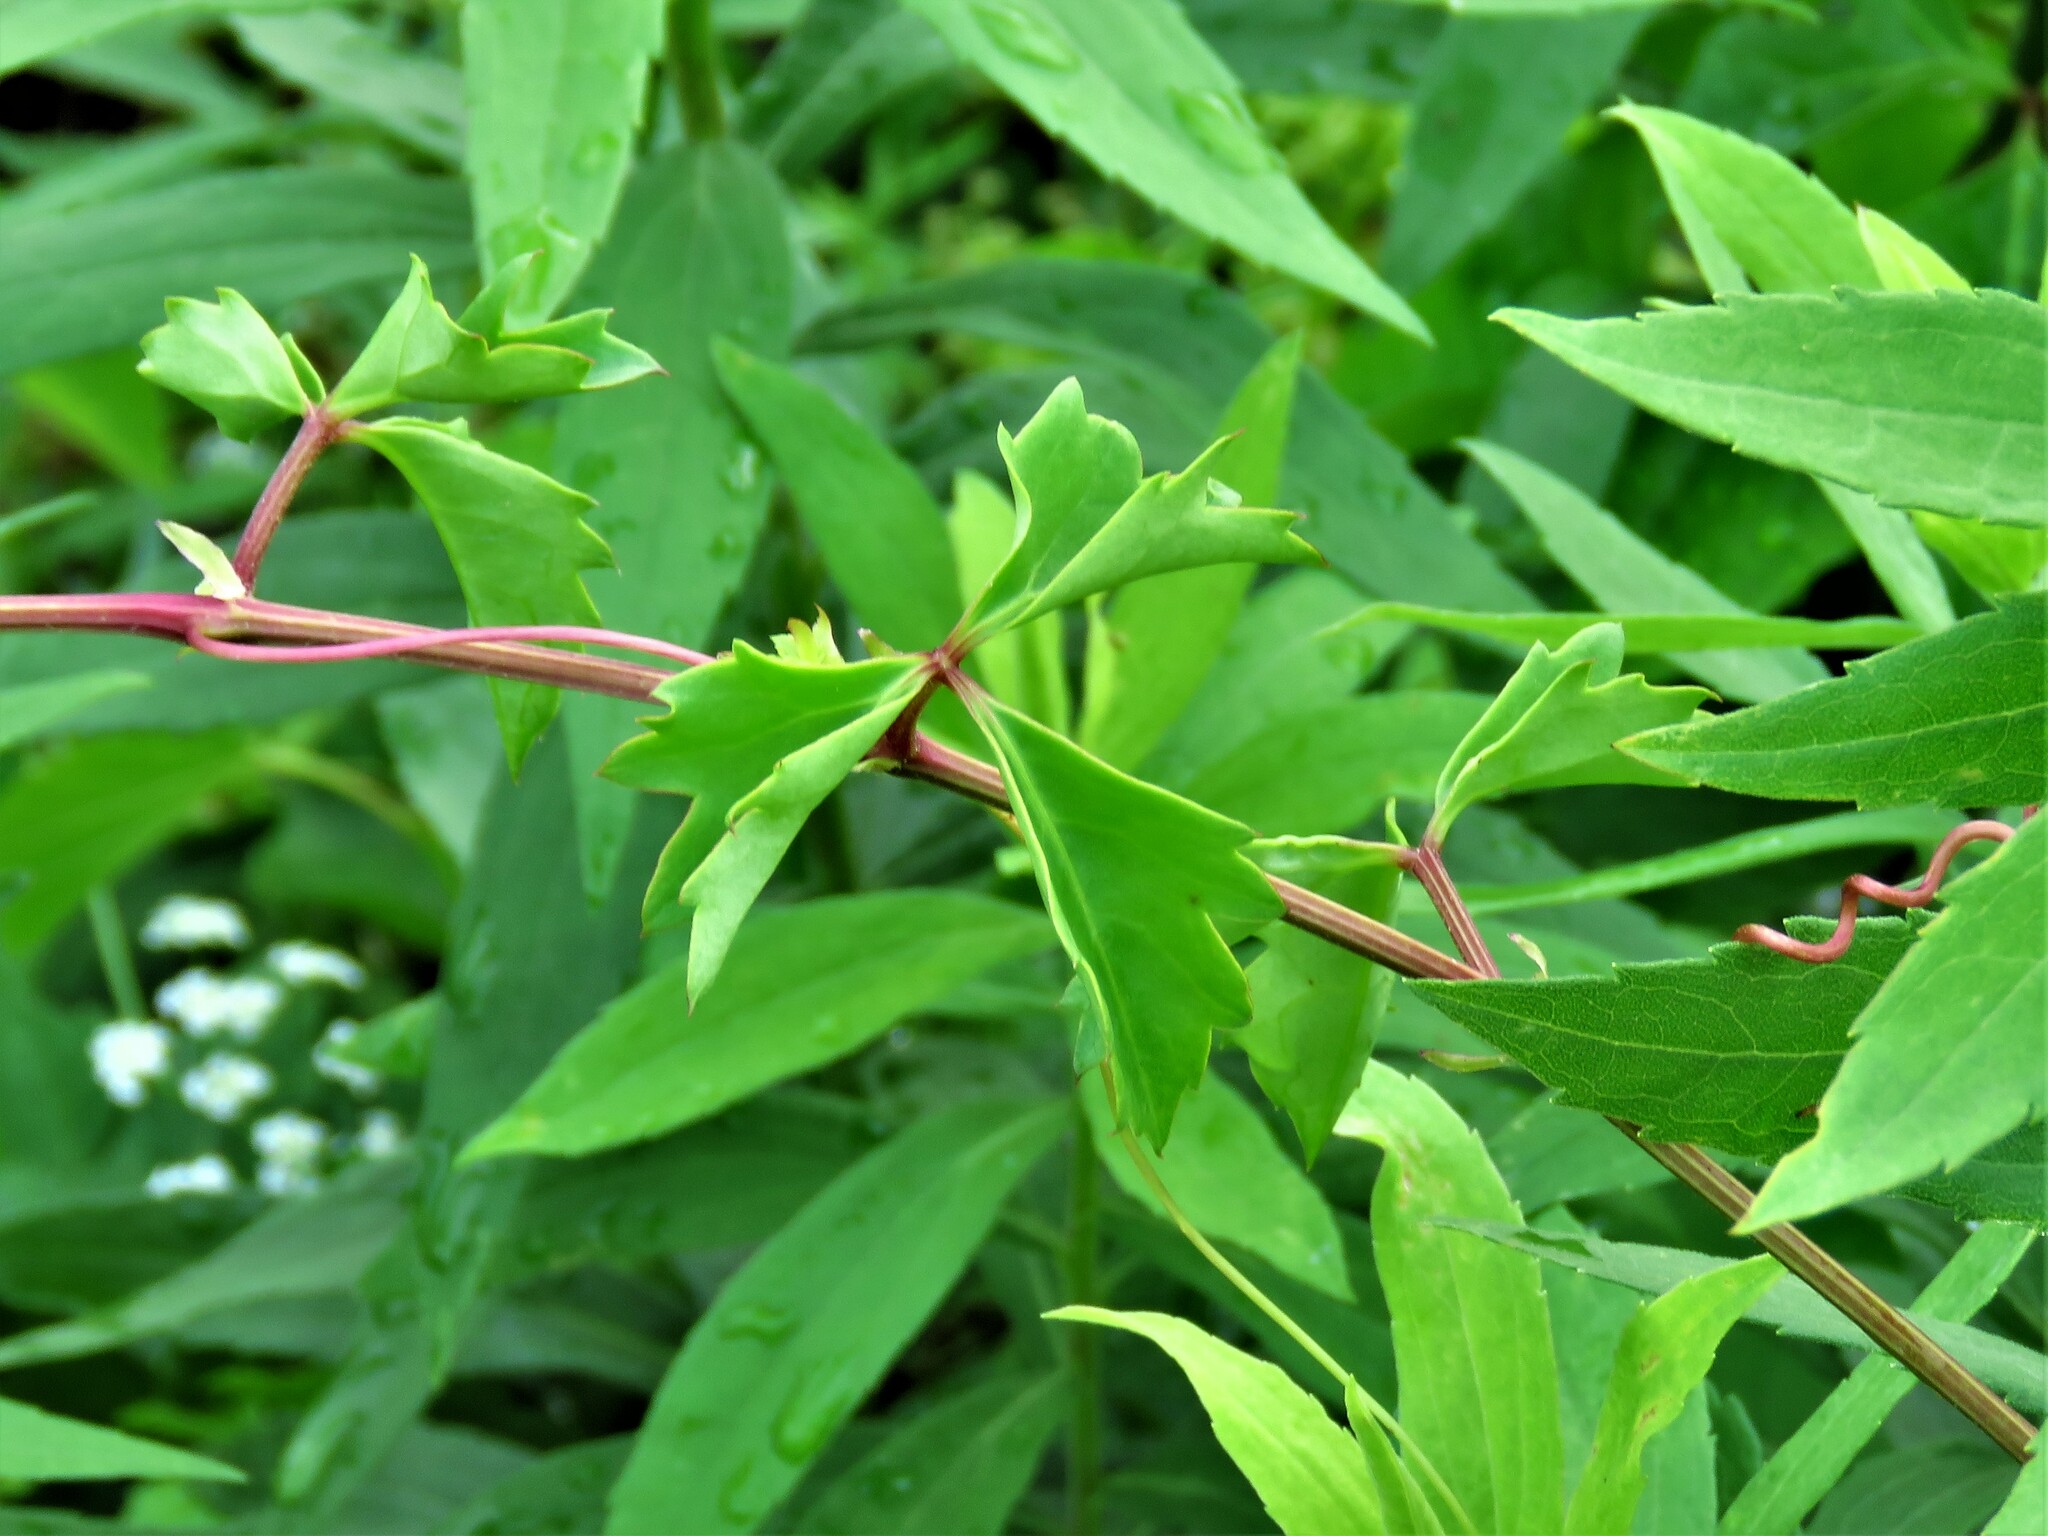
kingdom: Plantae
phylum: Tracheophyta
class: Magnoliopsida
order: Vitales
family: Vitaceae
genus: Cissus
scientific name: Cissus trifoliata
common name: Vine-sorrel
